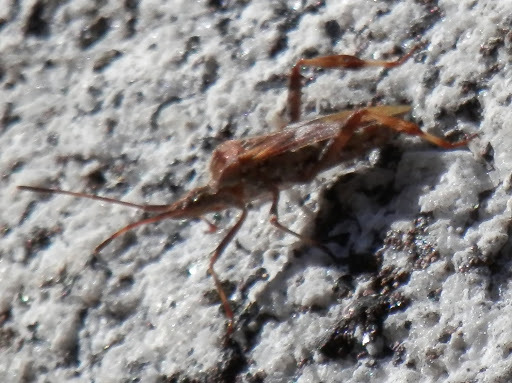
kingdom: Animalia
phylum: Arthropoda
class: Insecta
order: Hemiptera
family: Coreidae
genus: Leptoglossus
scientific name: Leptoglossus occidentalis
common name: Western conifer-seed bug
